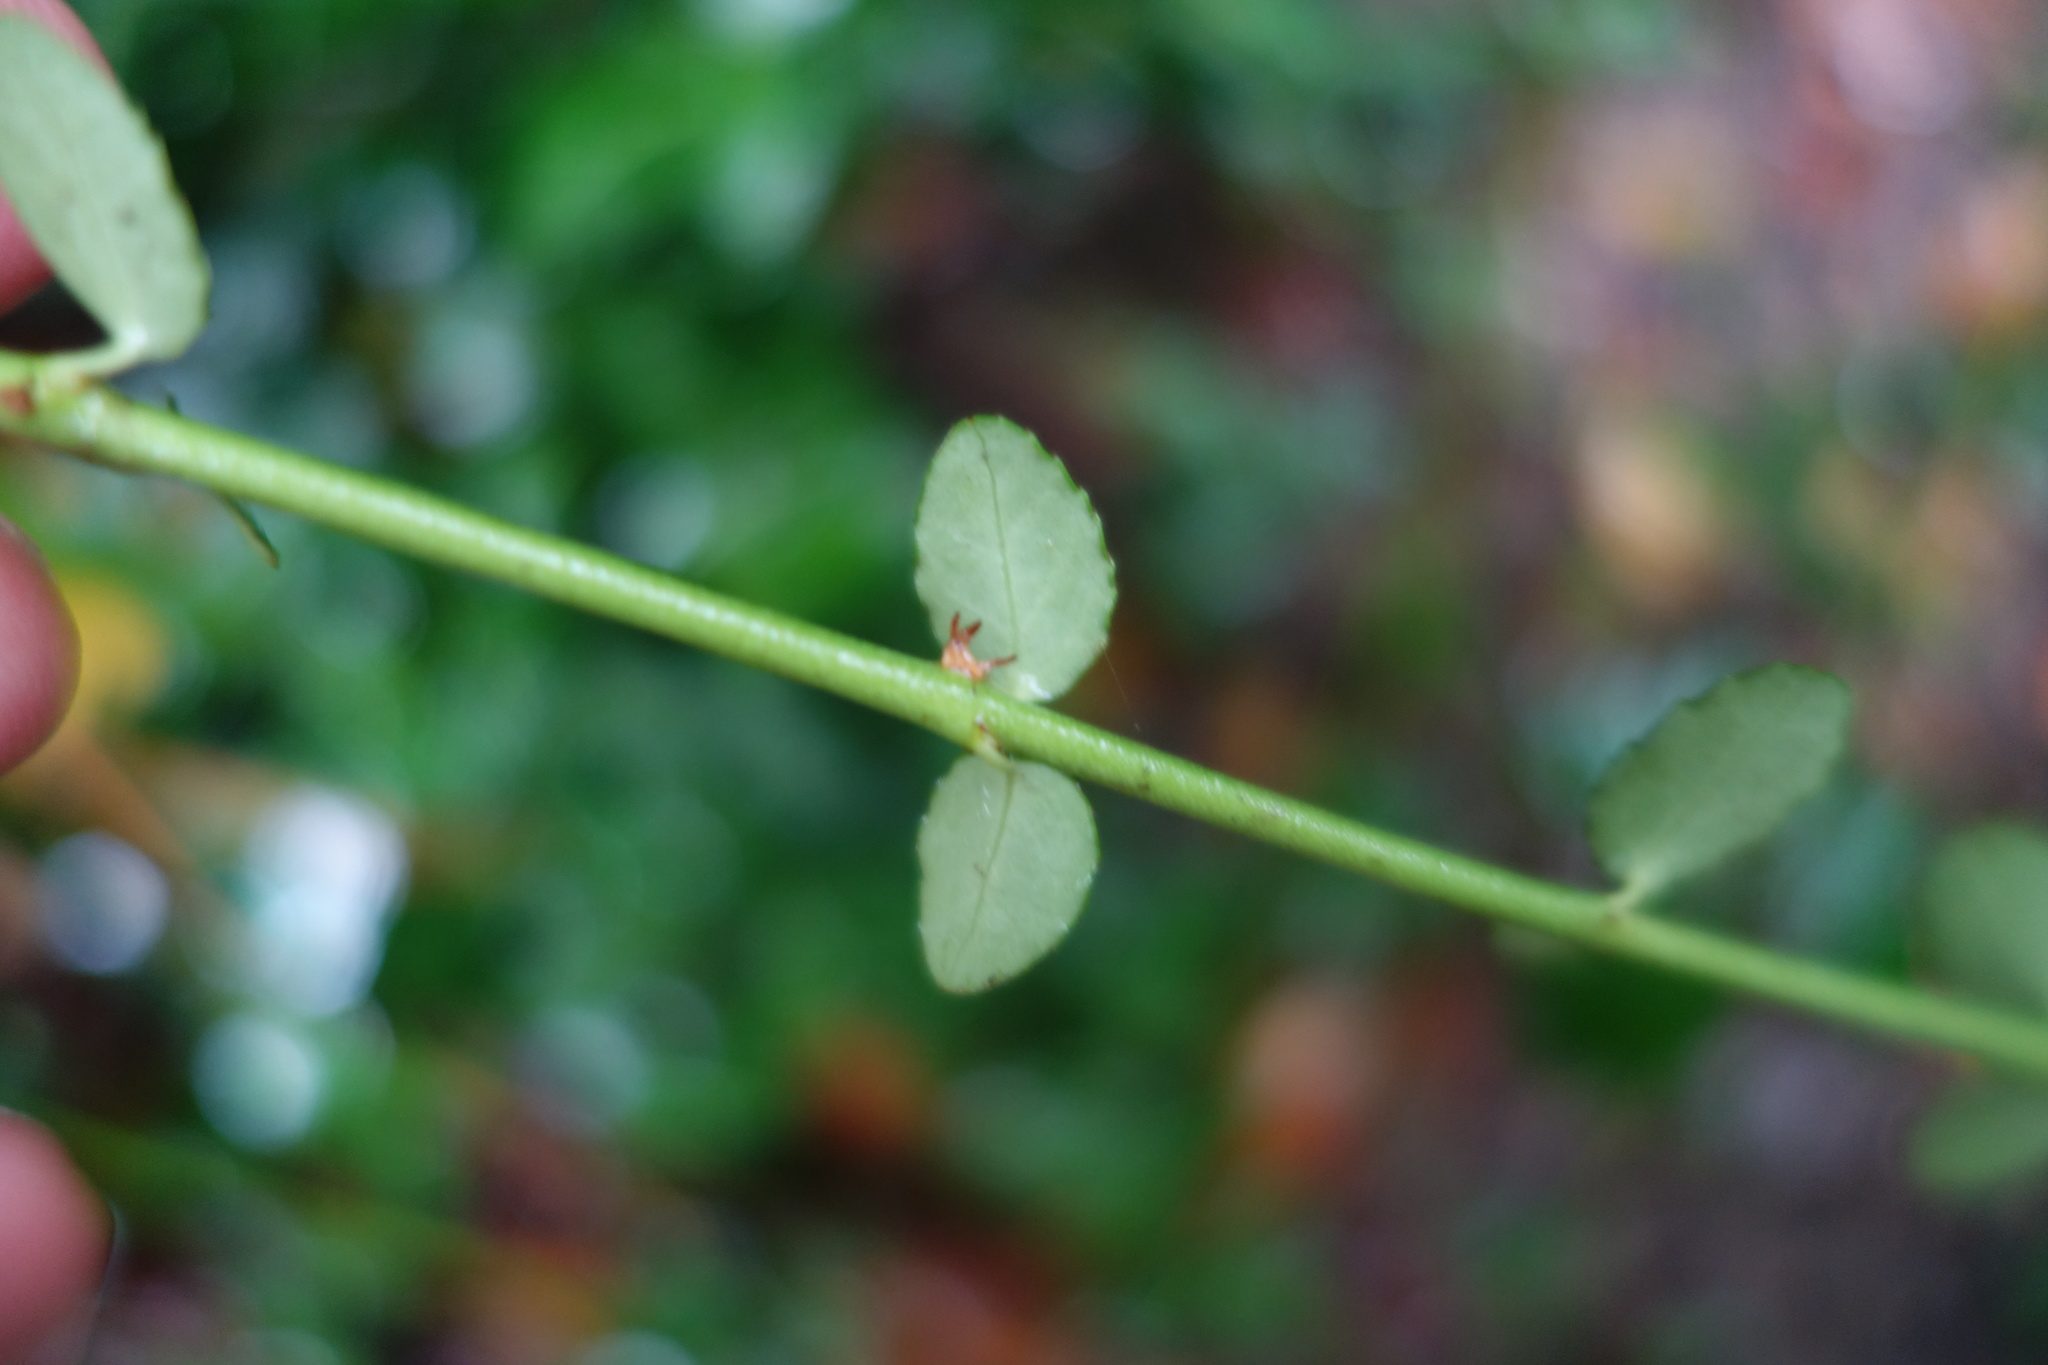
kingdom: Plantae
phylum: Tracheophyta
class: Magnoliopsida
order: Celastrales
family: Celastraceae
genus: Euonymus
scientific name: Euonymus fortunei
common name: Climbing euonymus
